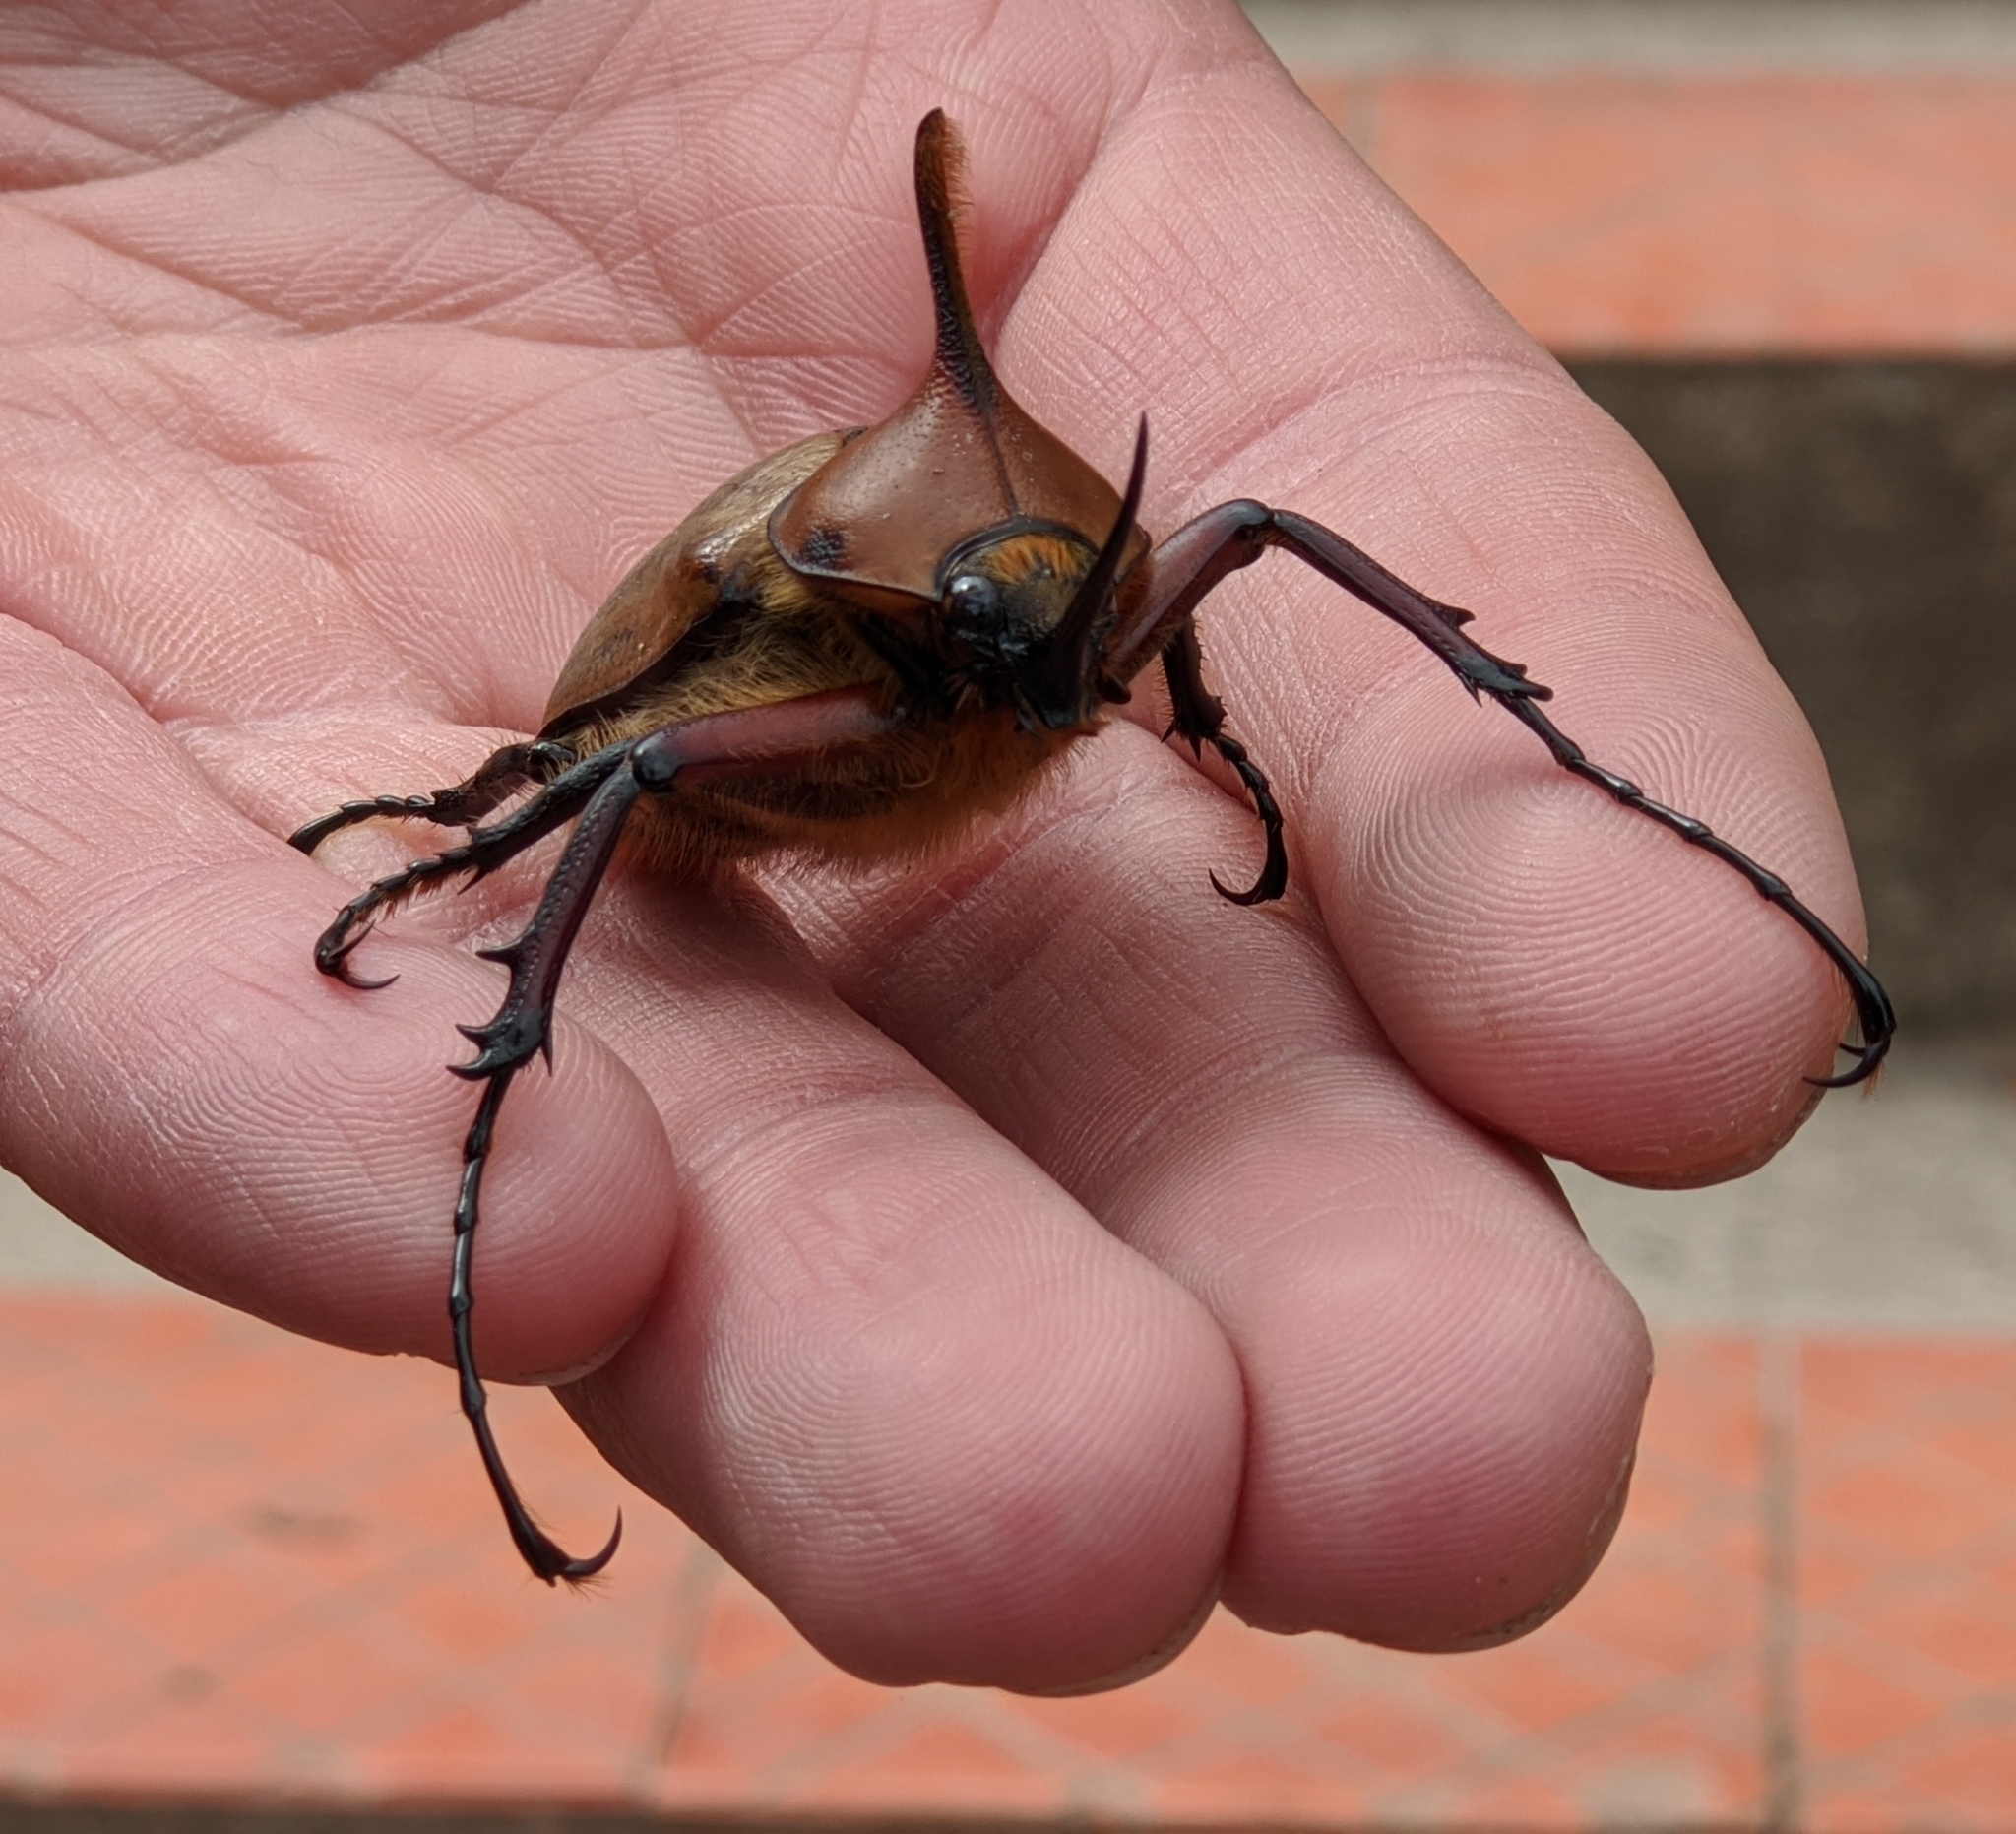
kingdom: Animalia
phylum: Arthropoda
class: Insecta
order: Coleoptera
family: Scarabaeidae
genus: Golofa
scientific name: Golofa eacus
